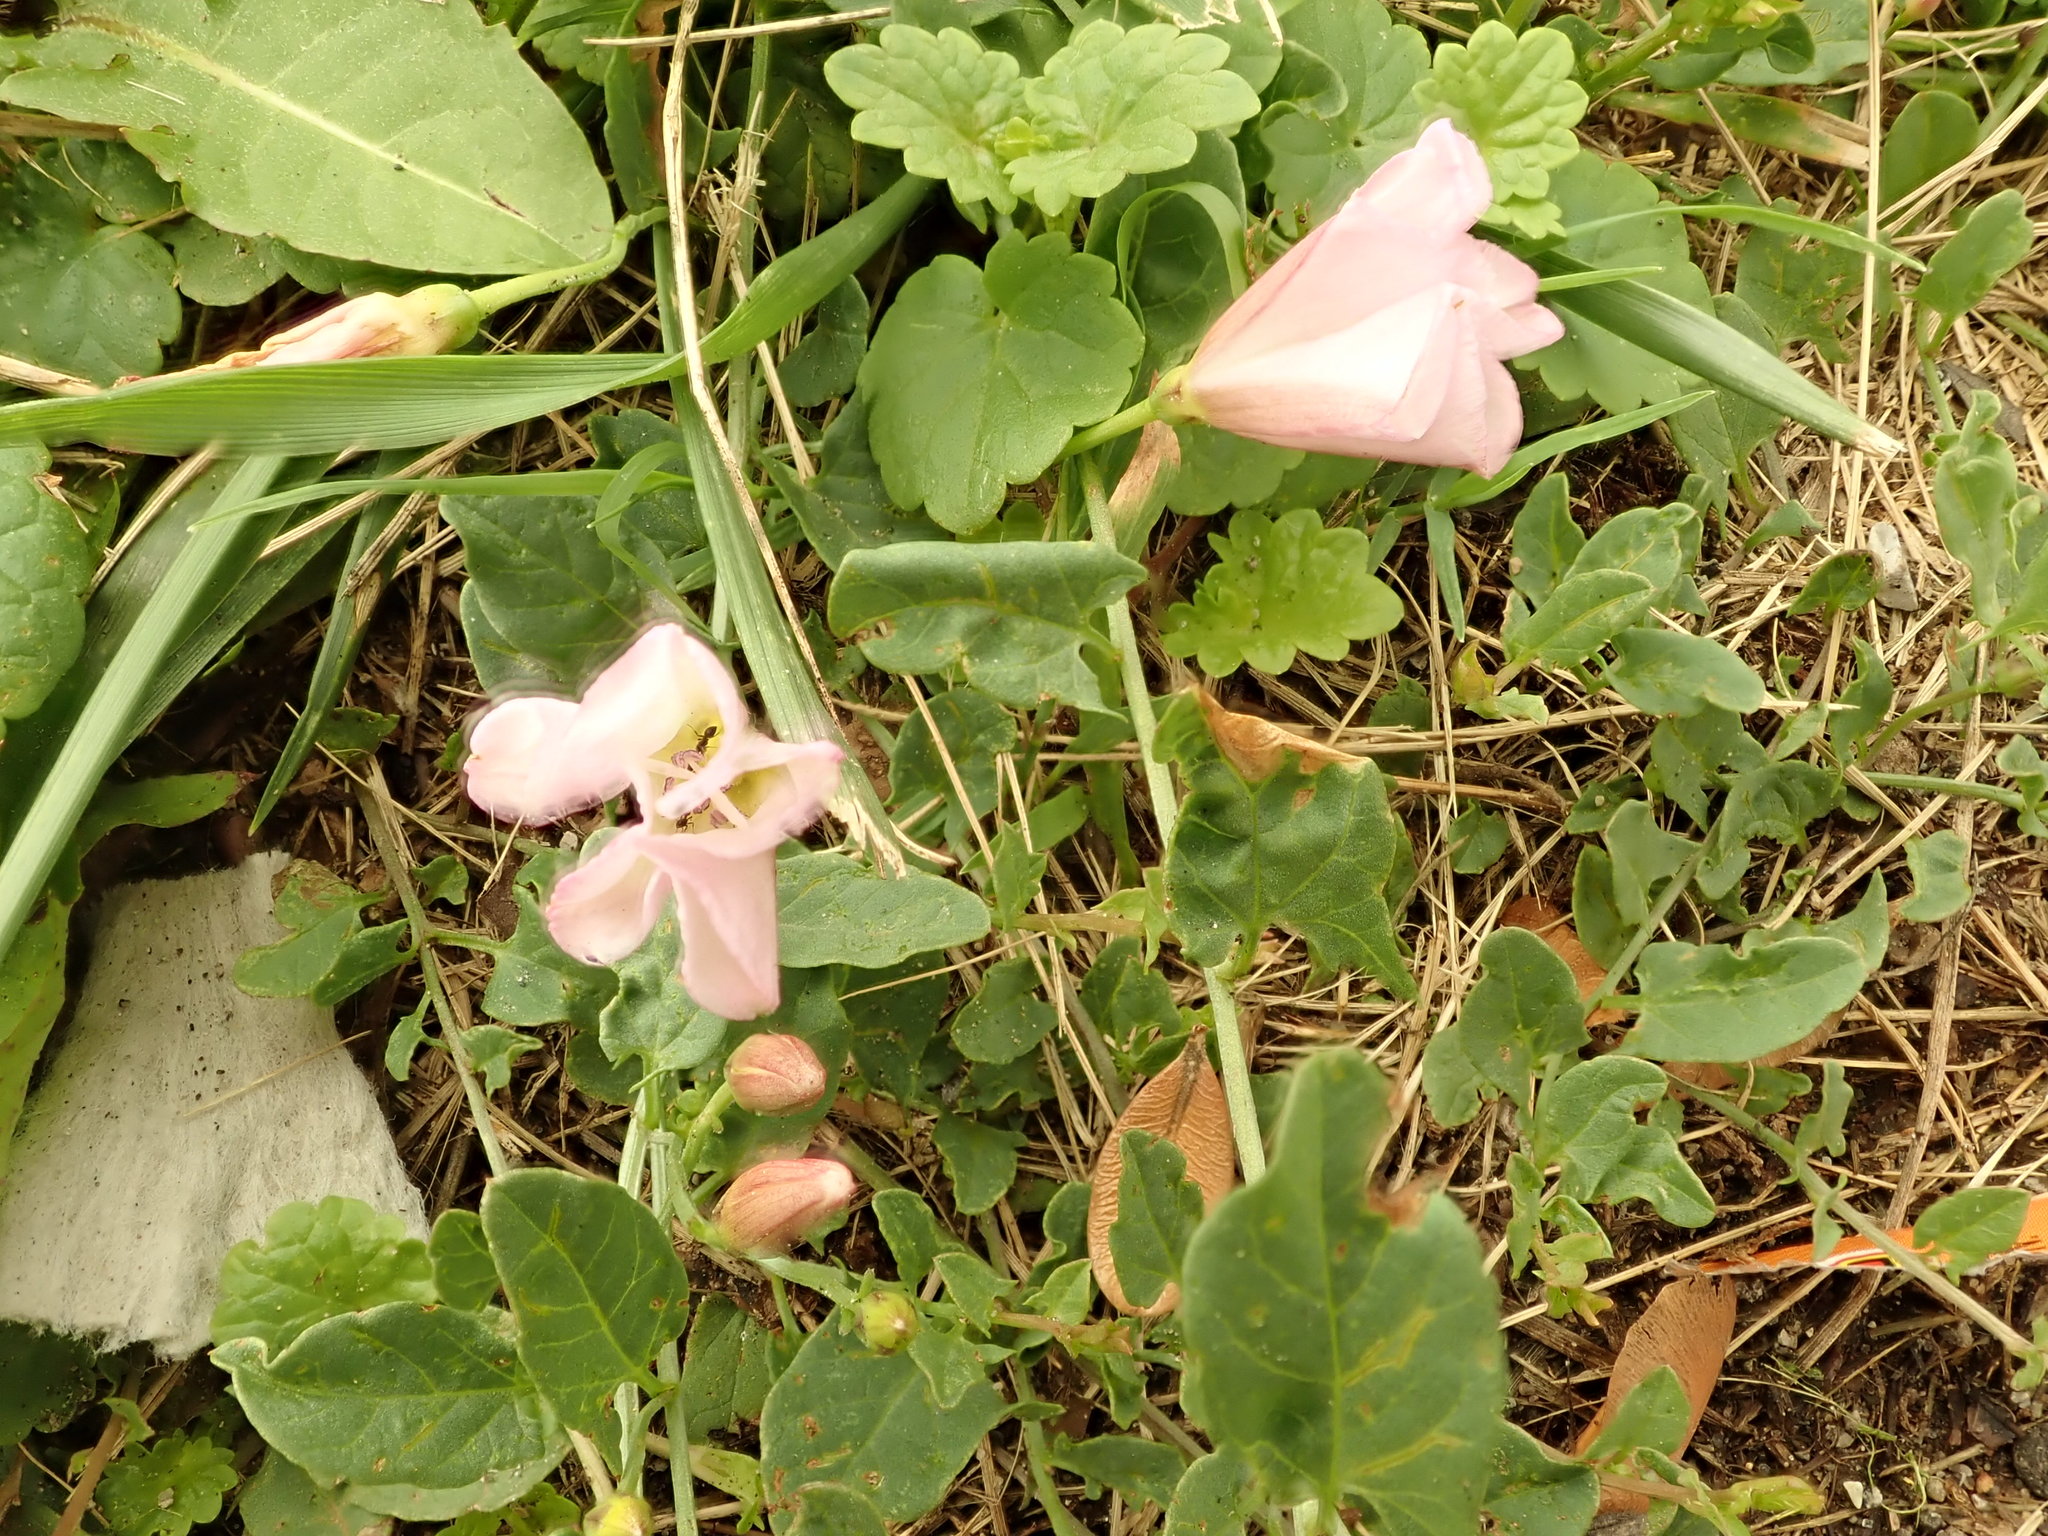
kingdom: Plantae
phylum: Tracheophyta
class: Magnoliopsida
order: Solanales
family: Convolvulaceae
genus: Convolvulus
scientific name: Convolvulus arvensis
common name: Field bindweed
